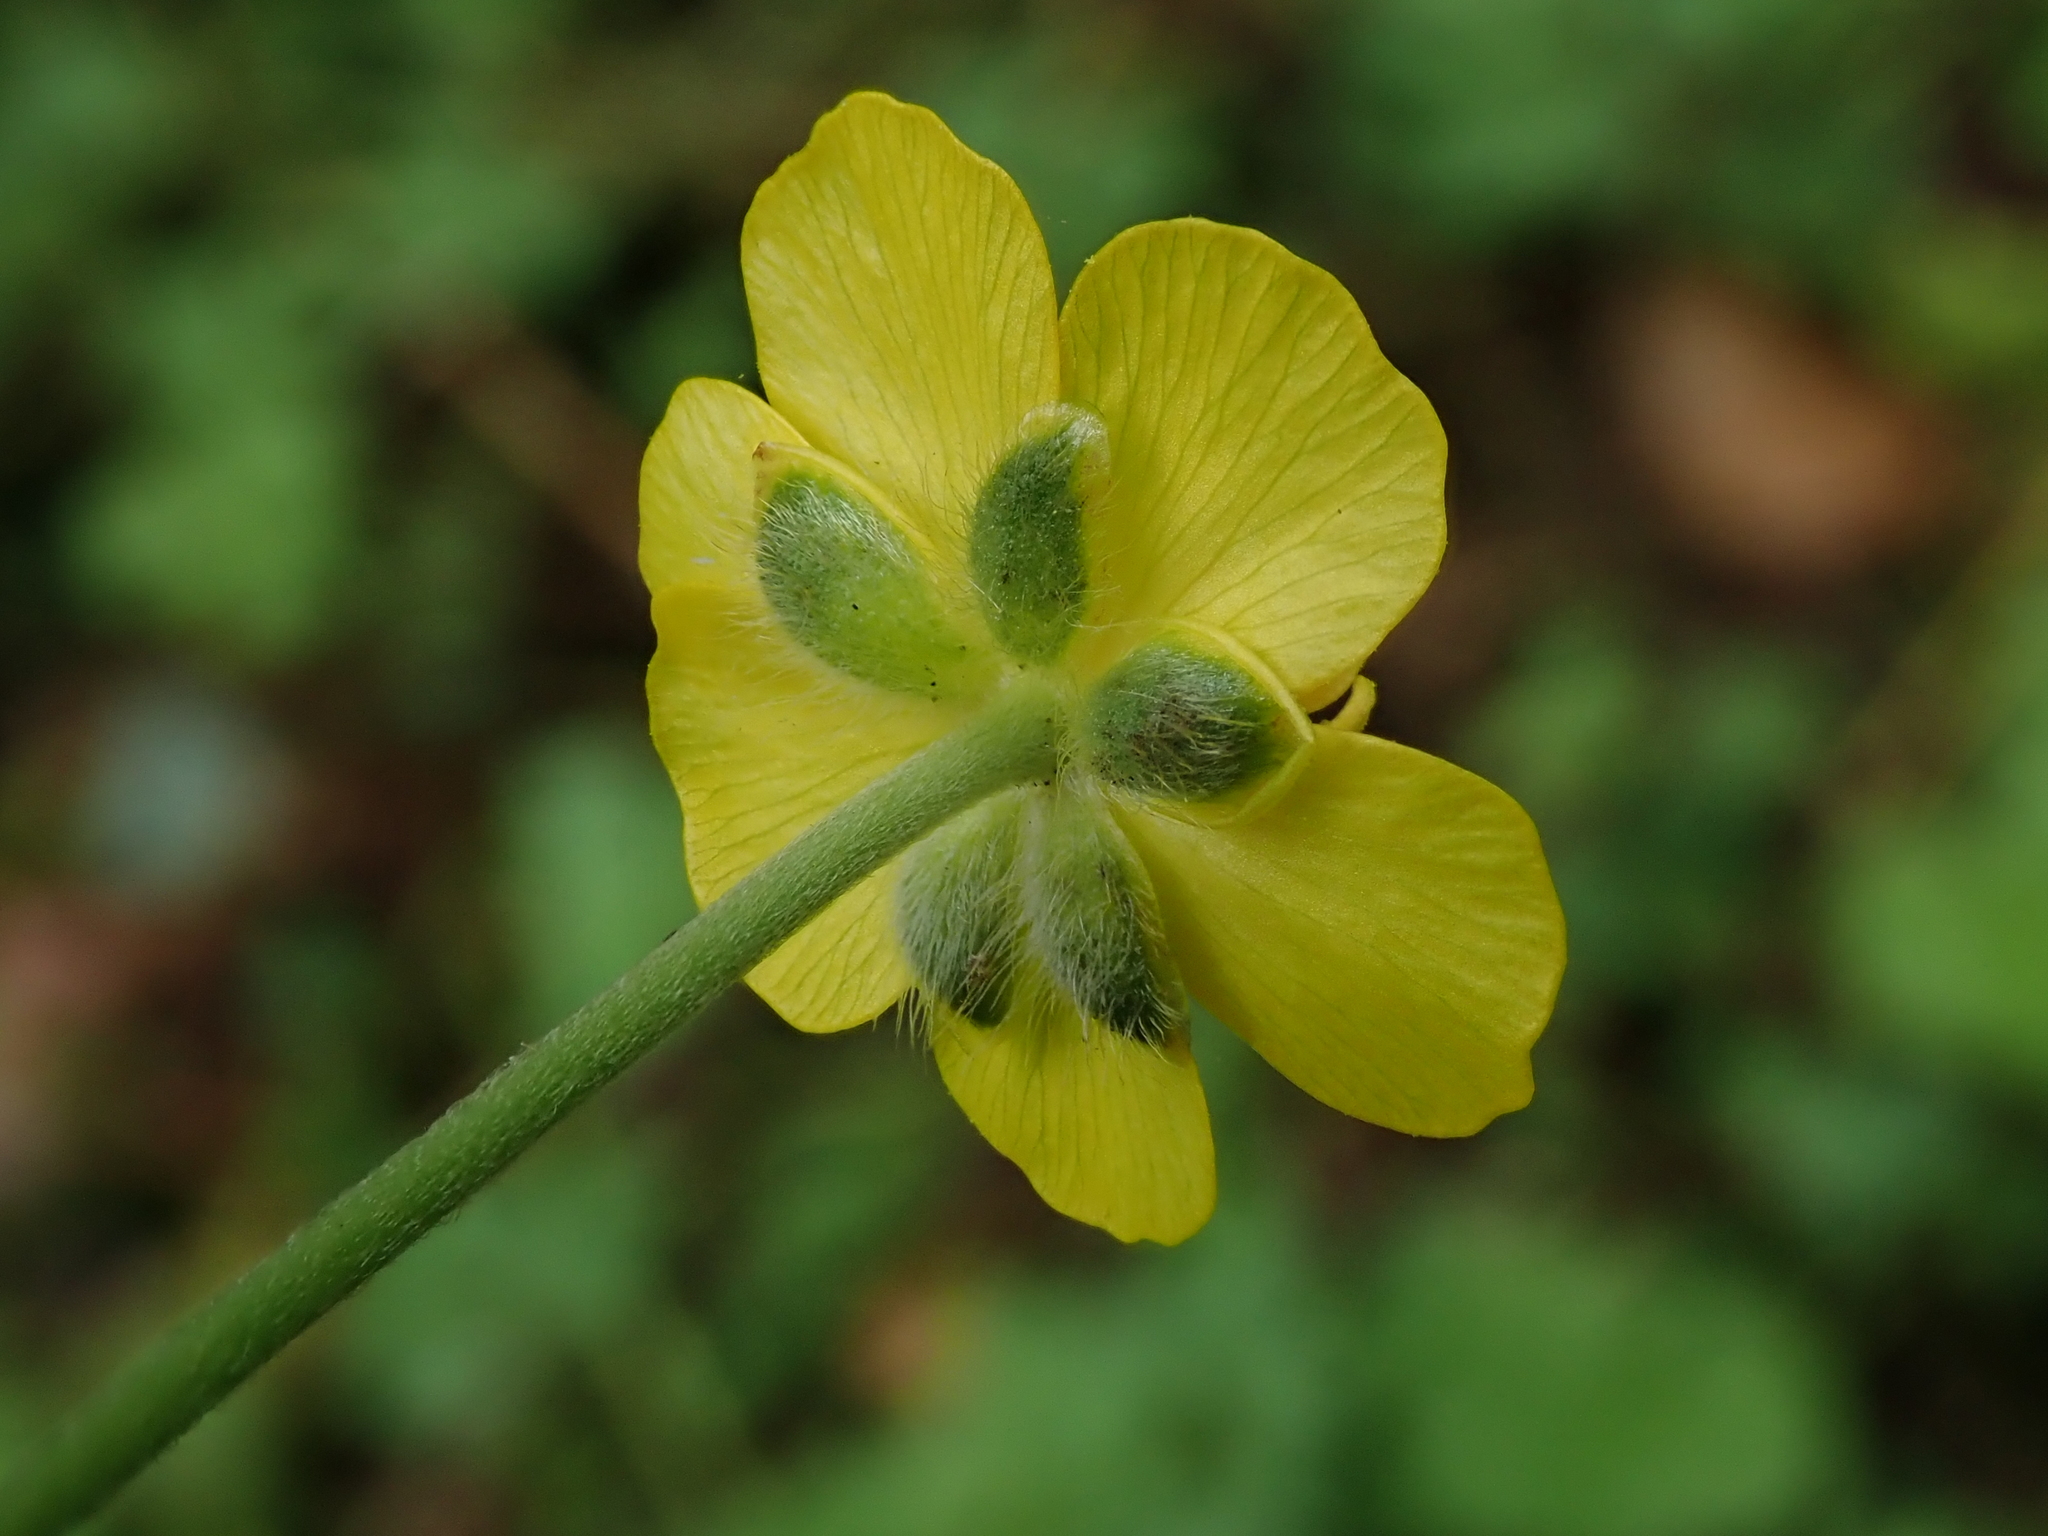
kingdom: Plantae
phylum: Tracheophyta
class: Magnoliopsida
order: Ranunculales
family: Ranunculaceae
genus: Ranunculus
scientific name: Ranunculus acris
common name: Meadow buttercup
